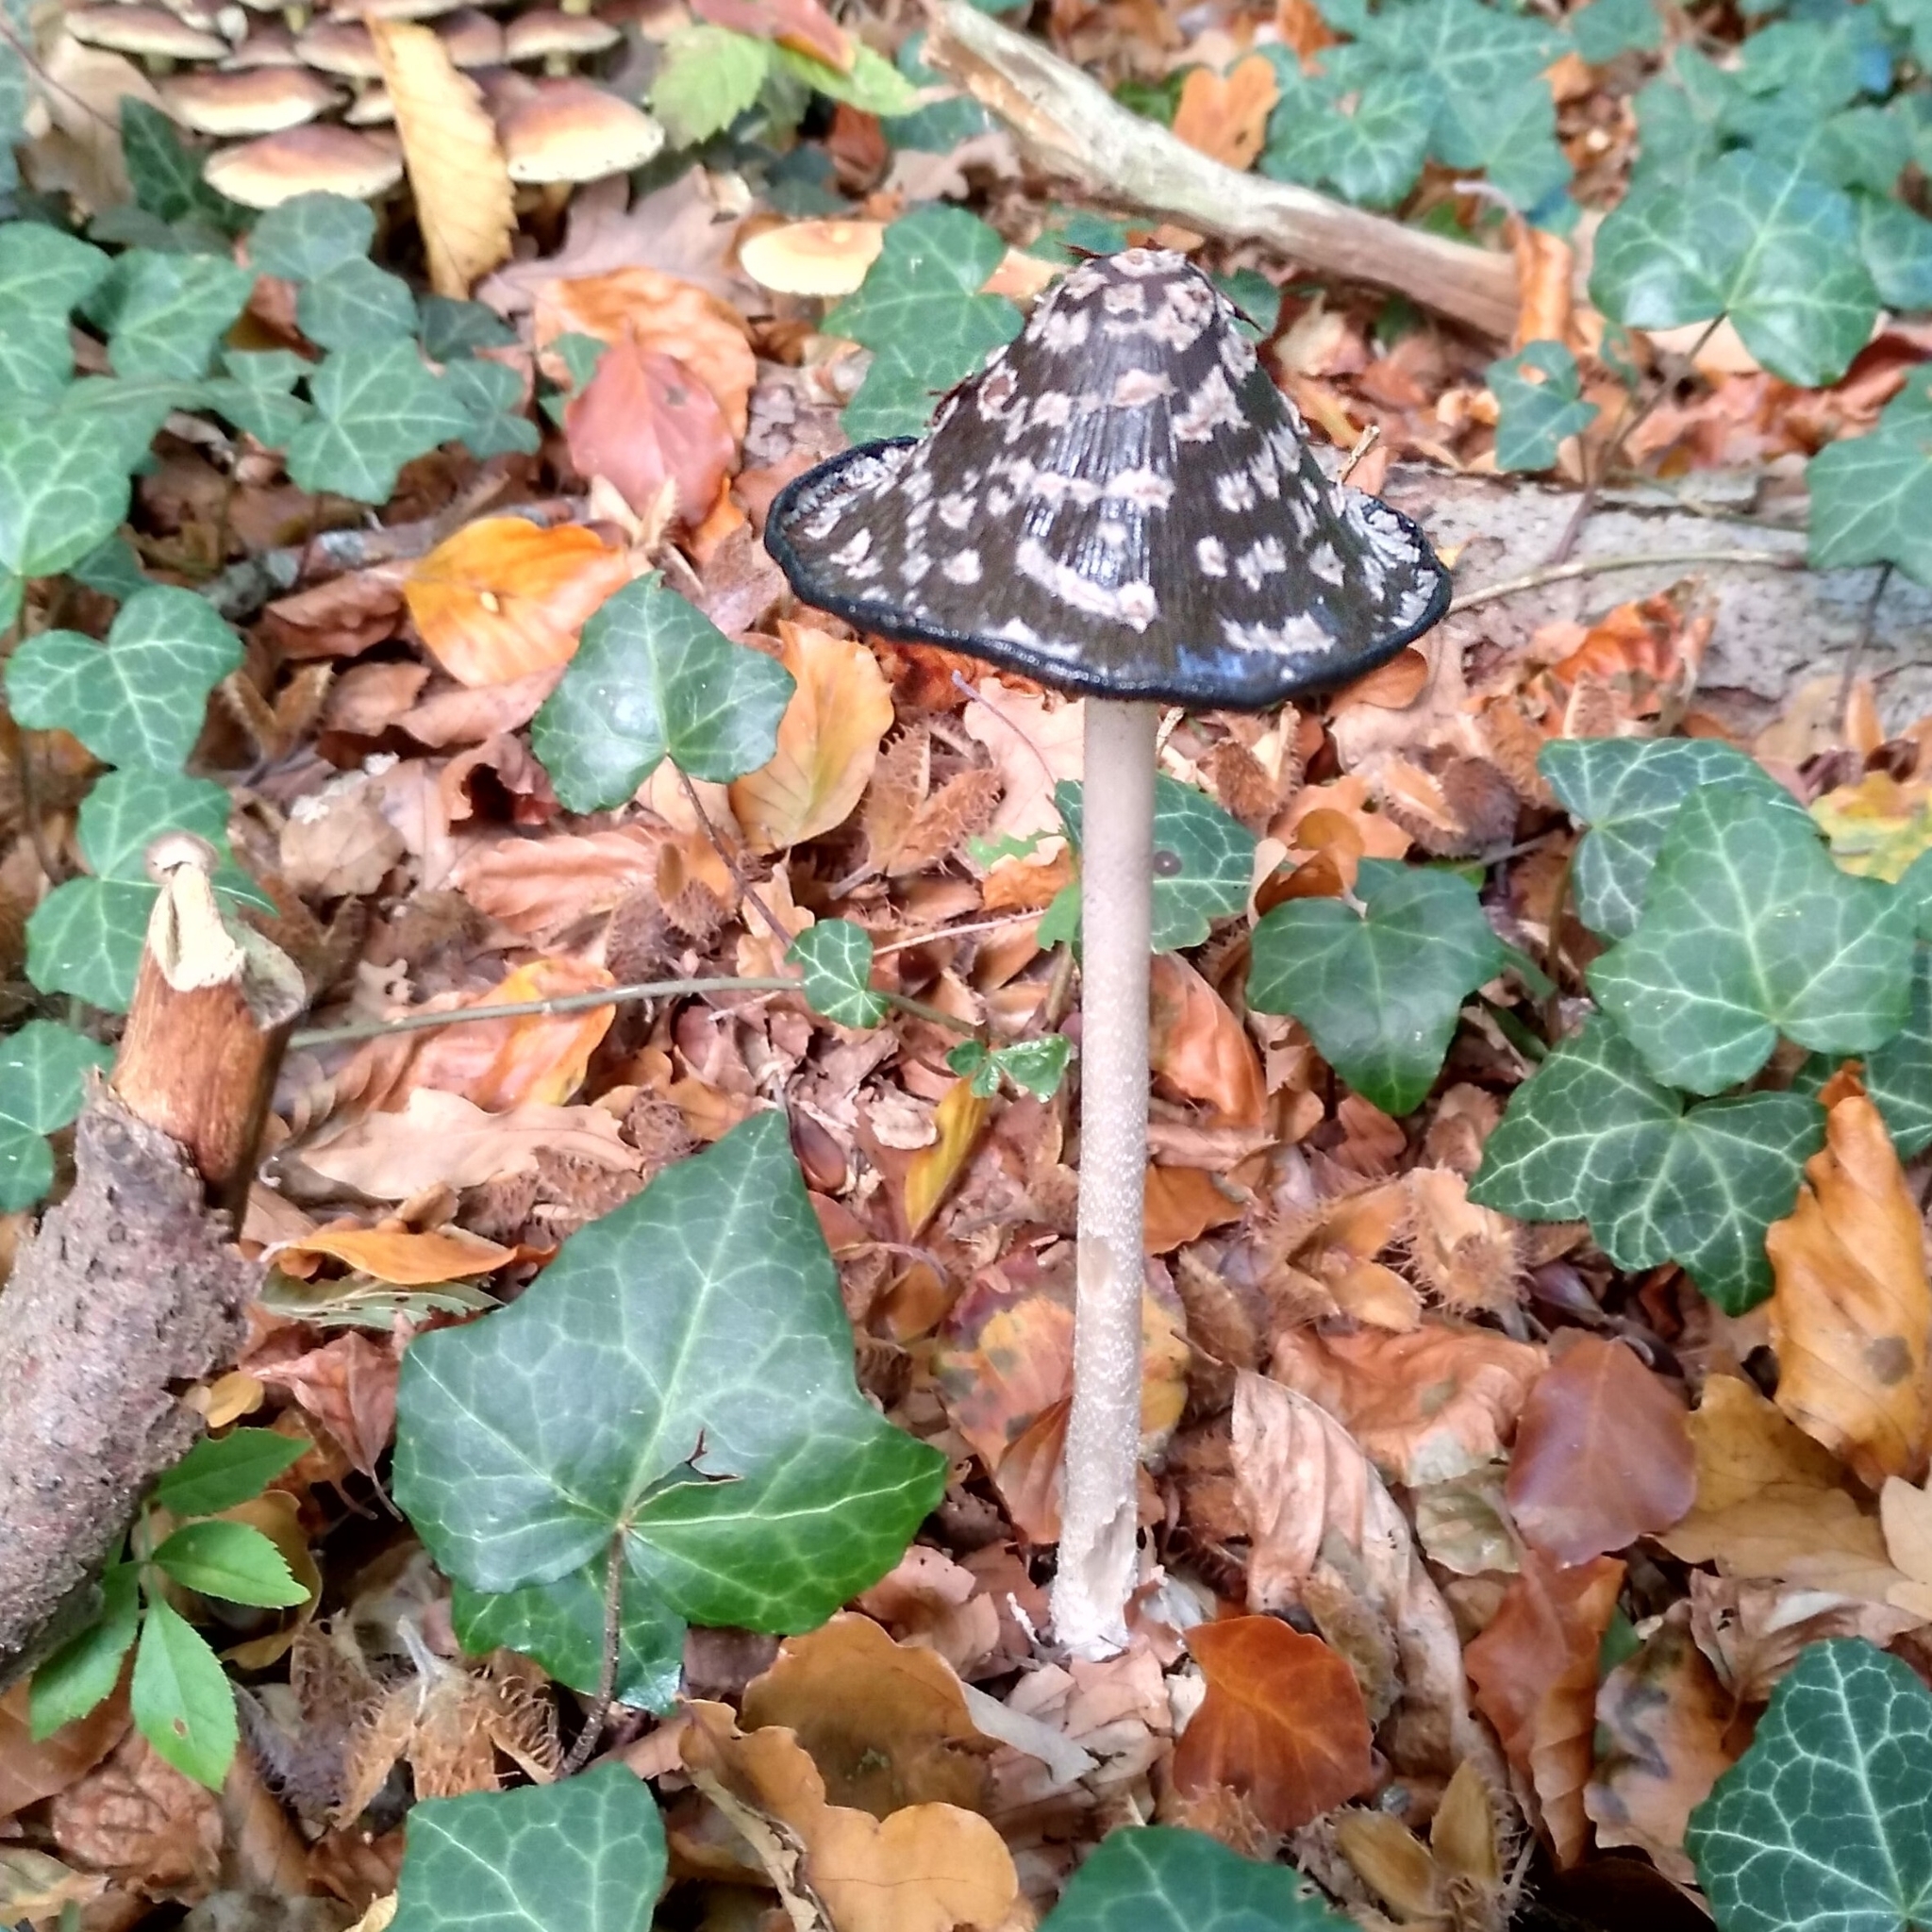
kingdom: Fungi
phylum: Basidiomycota
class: Agaricomycetes
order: Agaricales
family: Psathyrellaceae
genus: Coprinopsis
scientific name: Coprinopsis picacea
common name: Magpie inkcap
